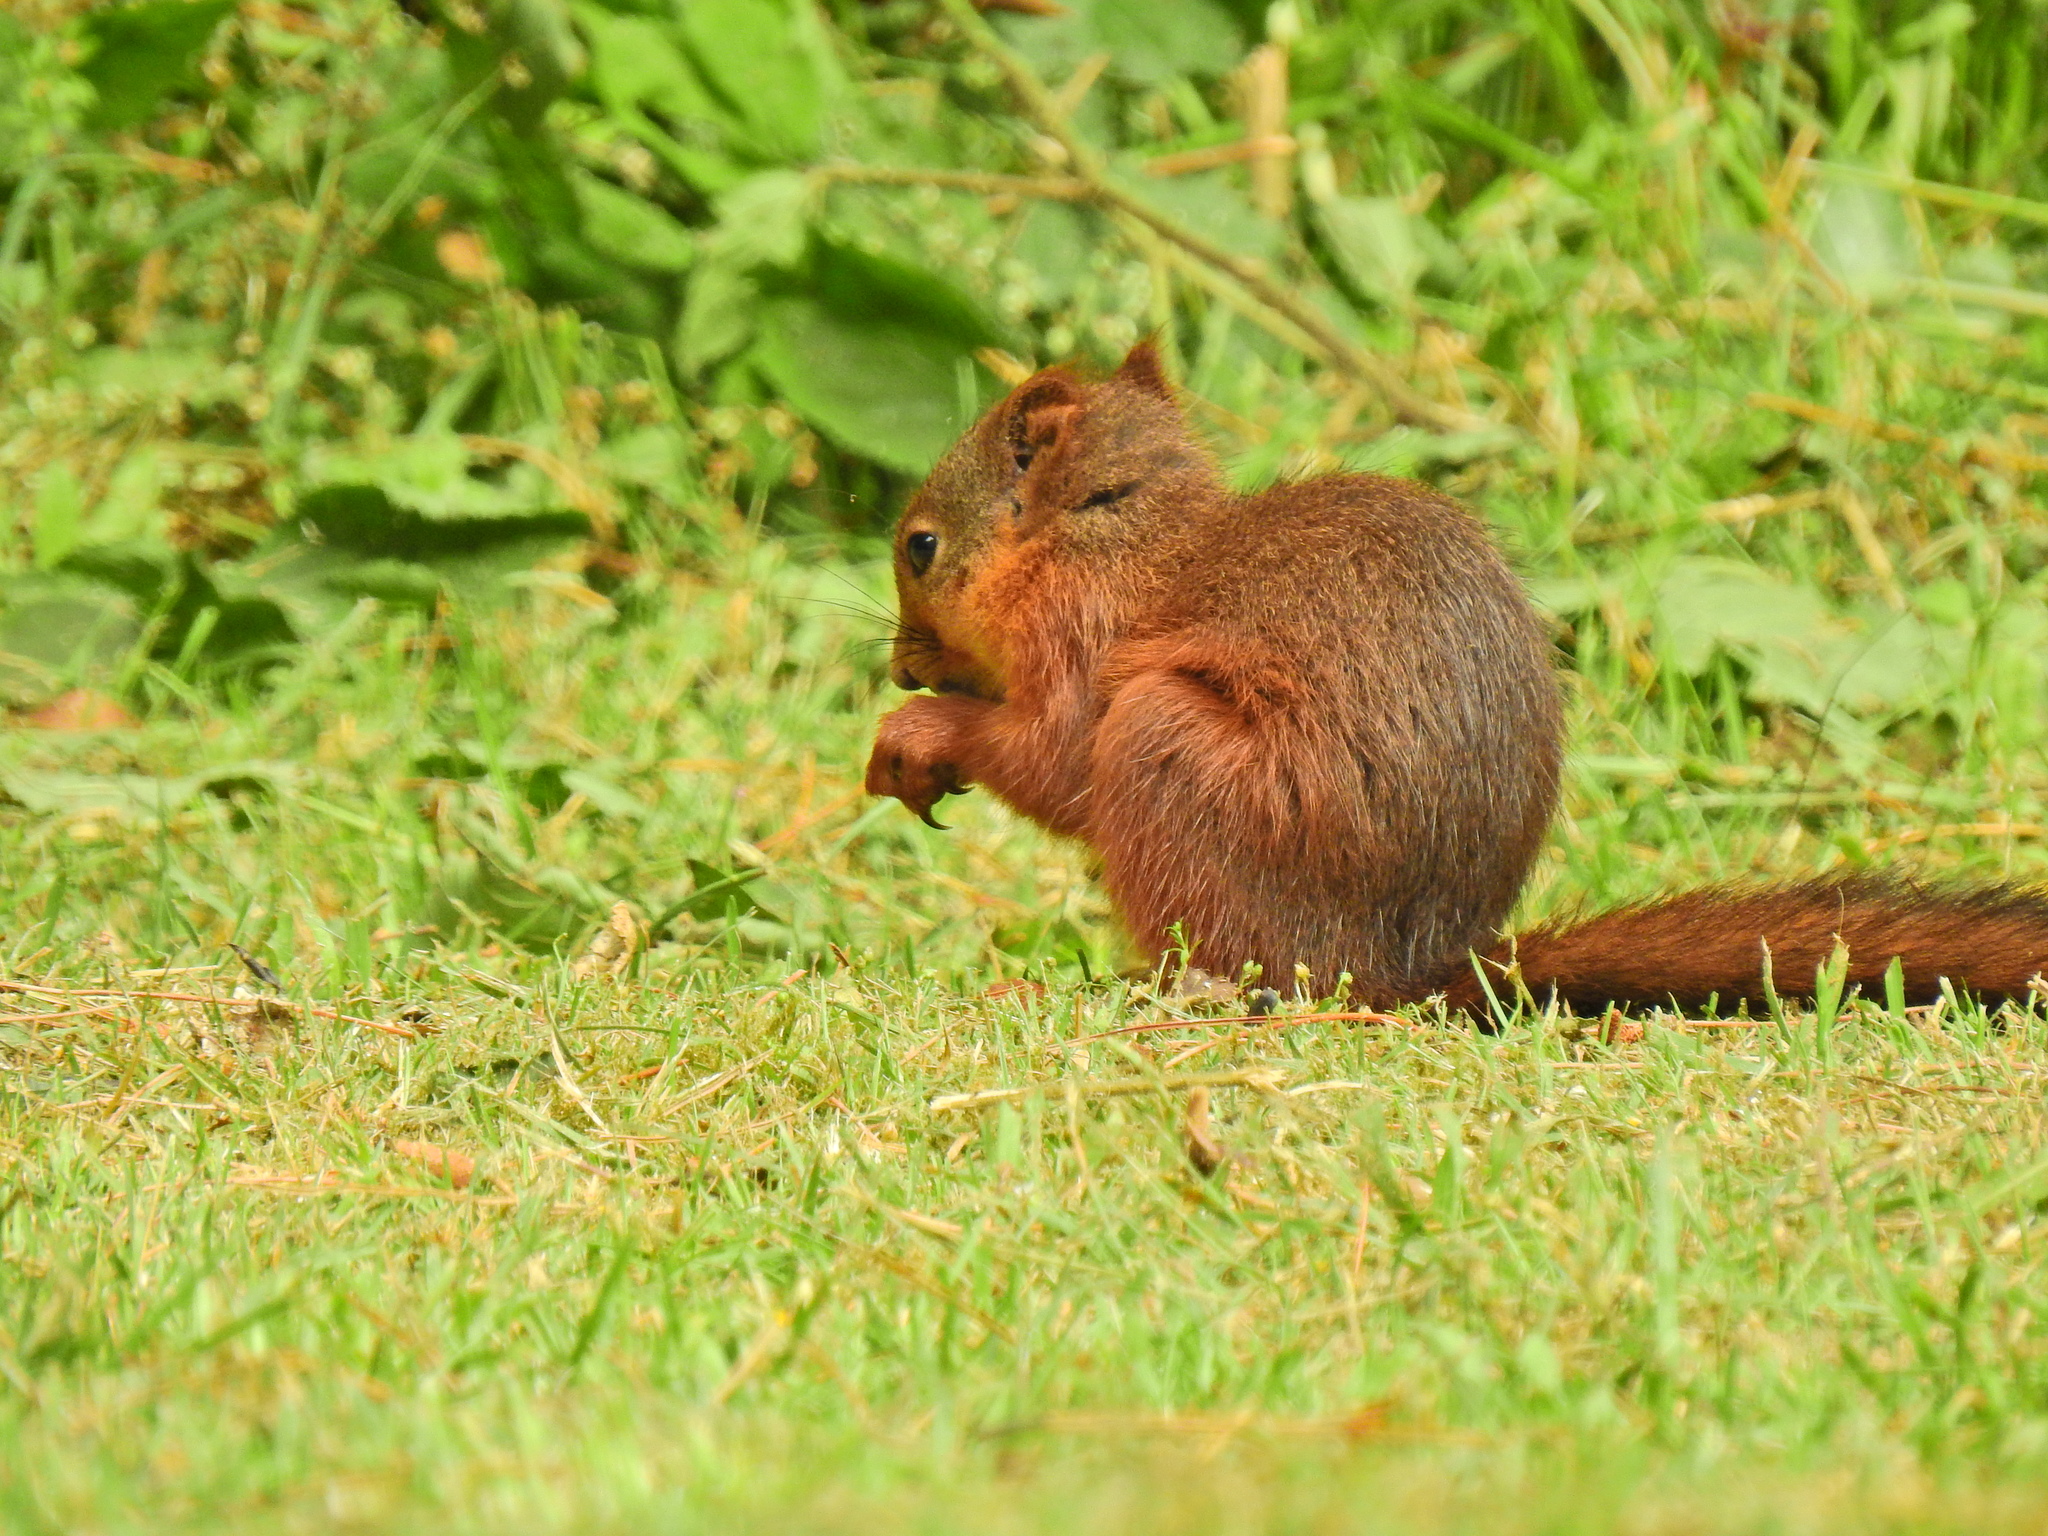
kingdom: Animalia
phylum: Chordata
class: Mammalia
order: Rodentia
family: Sciuridae
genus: Sciurus
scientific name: Sciurus vulgaris
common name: Eurasian red squirrel
